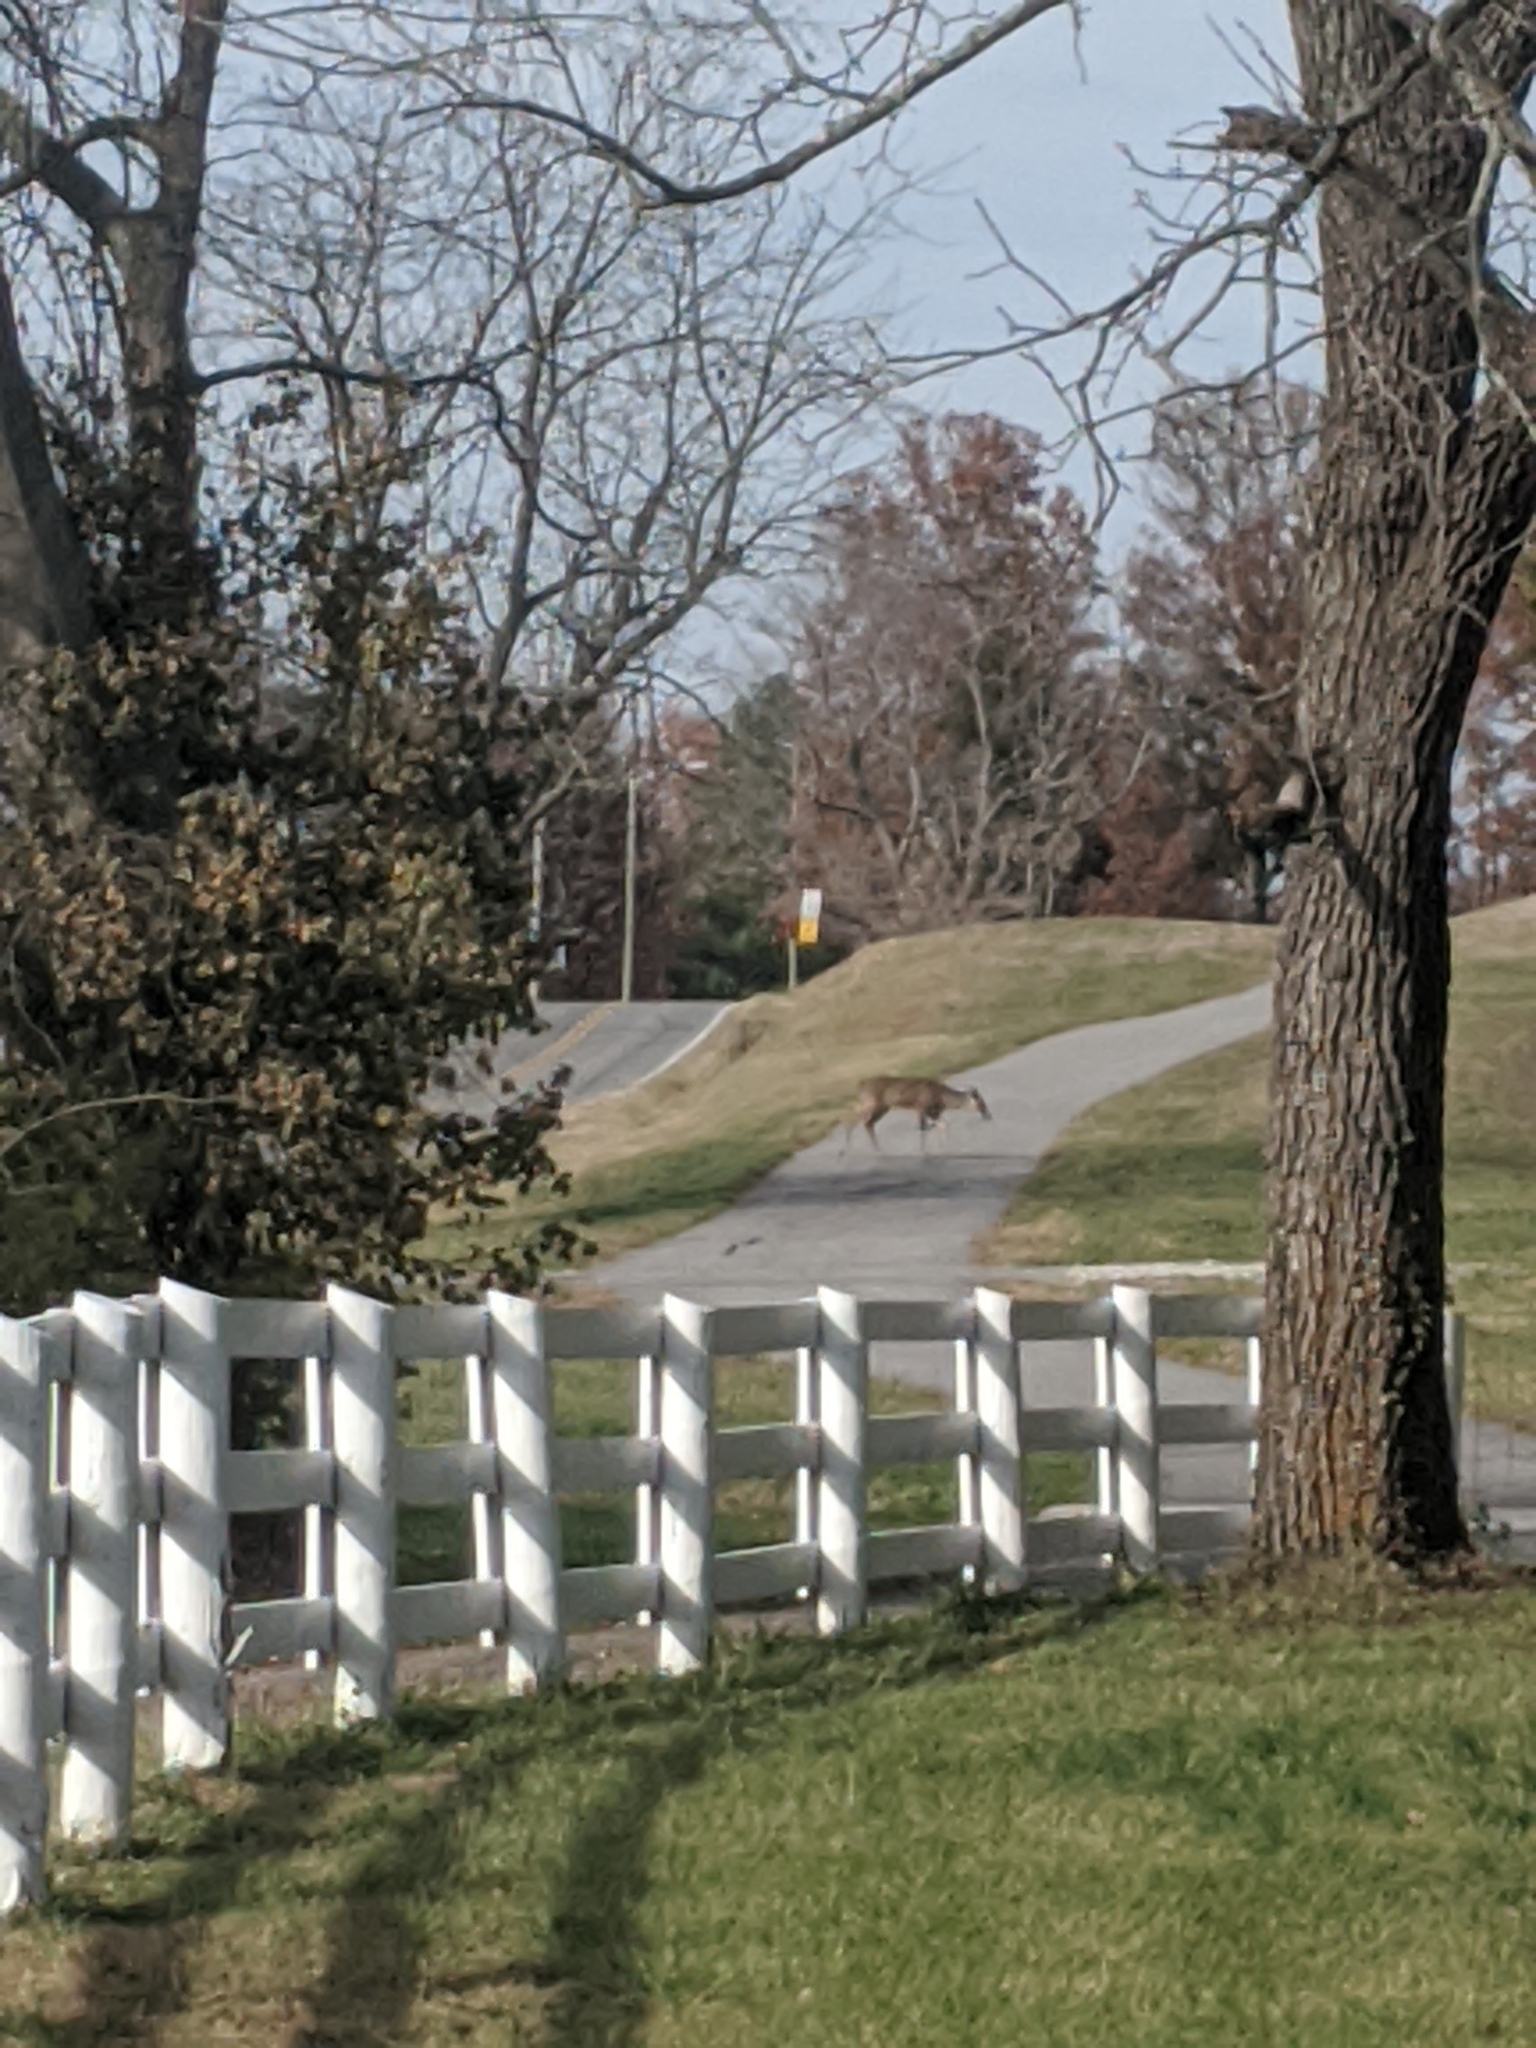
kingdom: Animalia
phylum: Chordata
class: Mammalia
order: Artiodactyla
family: Cervidae
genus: Odocoileus
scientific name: Odocoileus virginianus
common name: White-tailed deer
